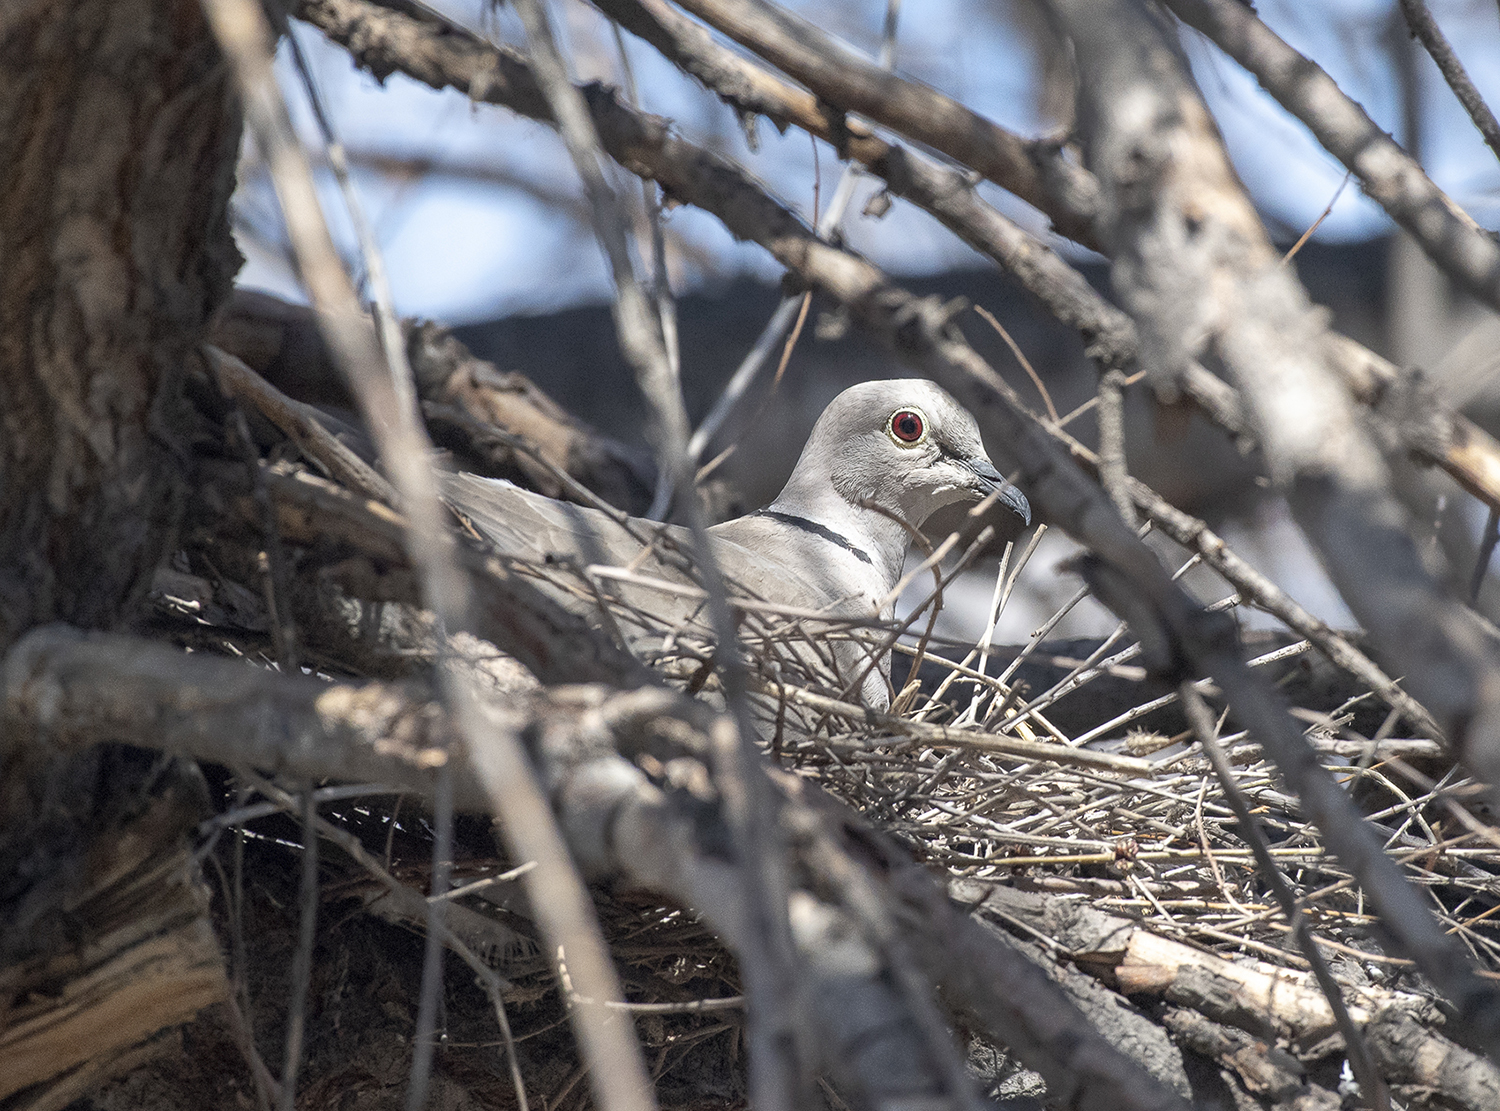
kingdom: Animalia
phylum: Chordata
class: Aves
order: Columbiformes
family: Columbidae
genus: Streptopelia
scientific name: Streptopelia decaocto
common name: Eurasian collared dove
